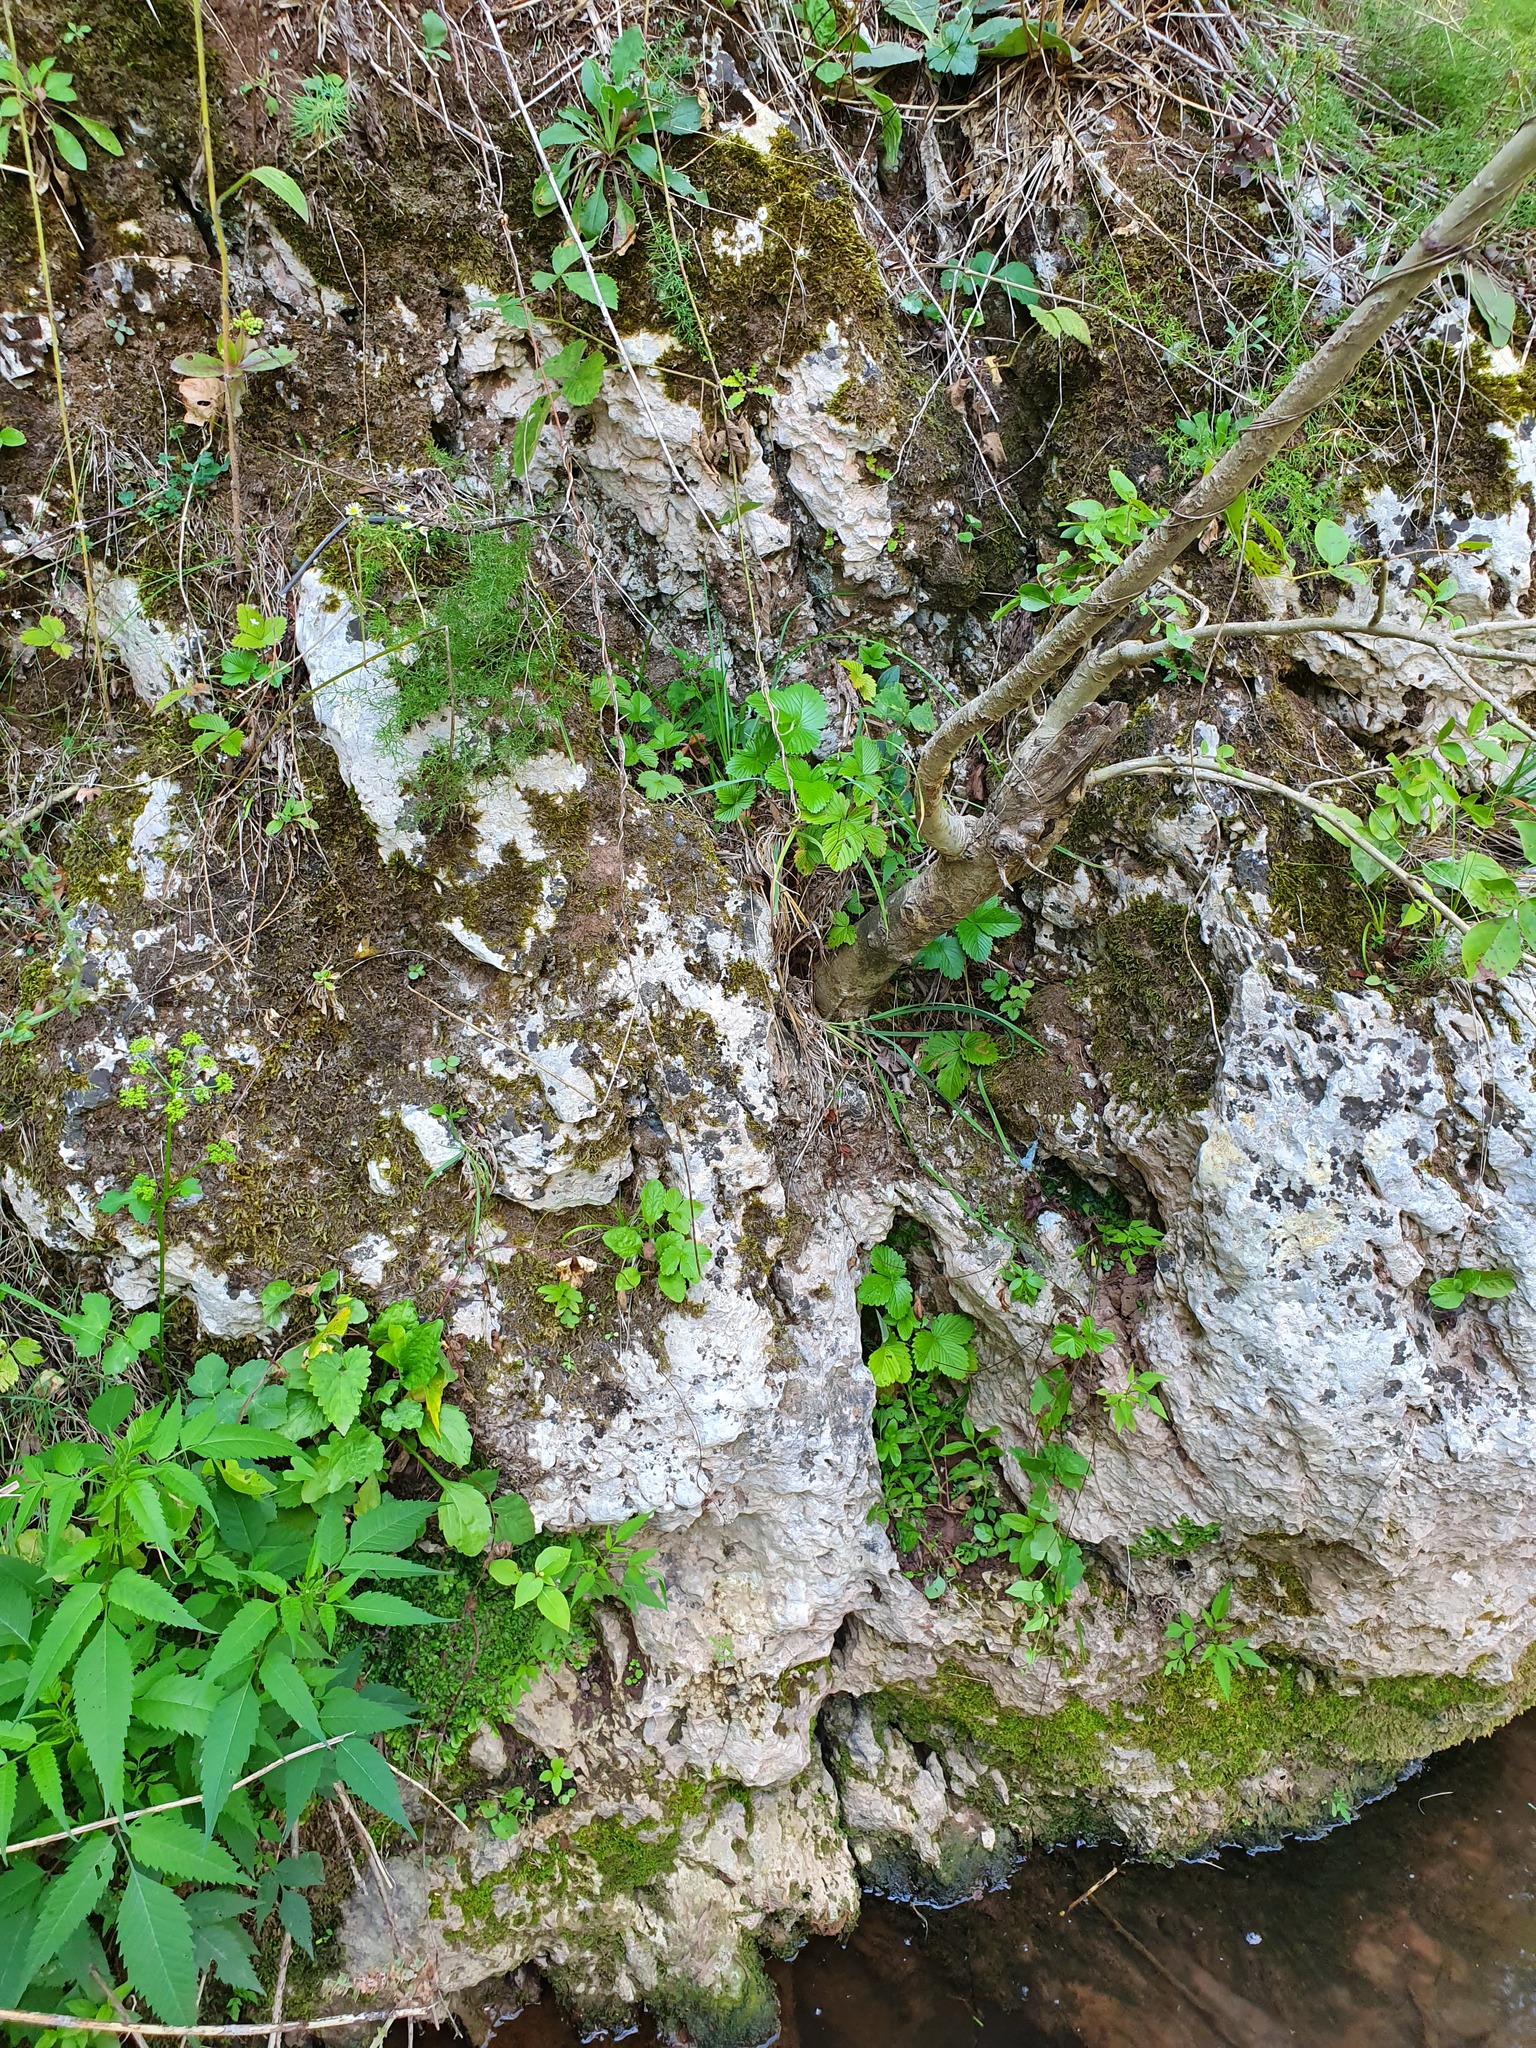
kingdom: Plantae
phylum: Tracheophyta
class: Magnoliopsida
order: Rosales
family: Rosaceae
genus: Fragaria
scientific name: Fragaria vesca
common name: Wild strawberry
